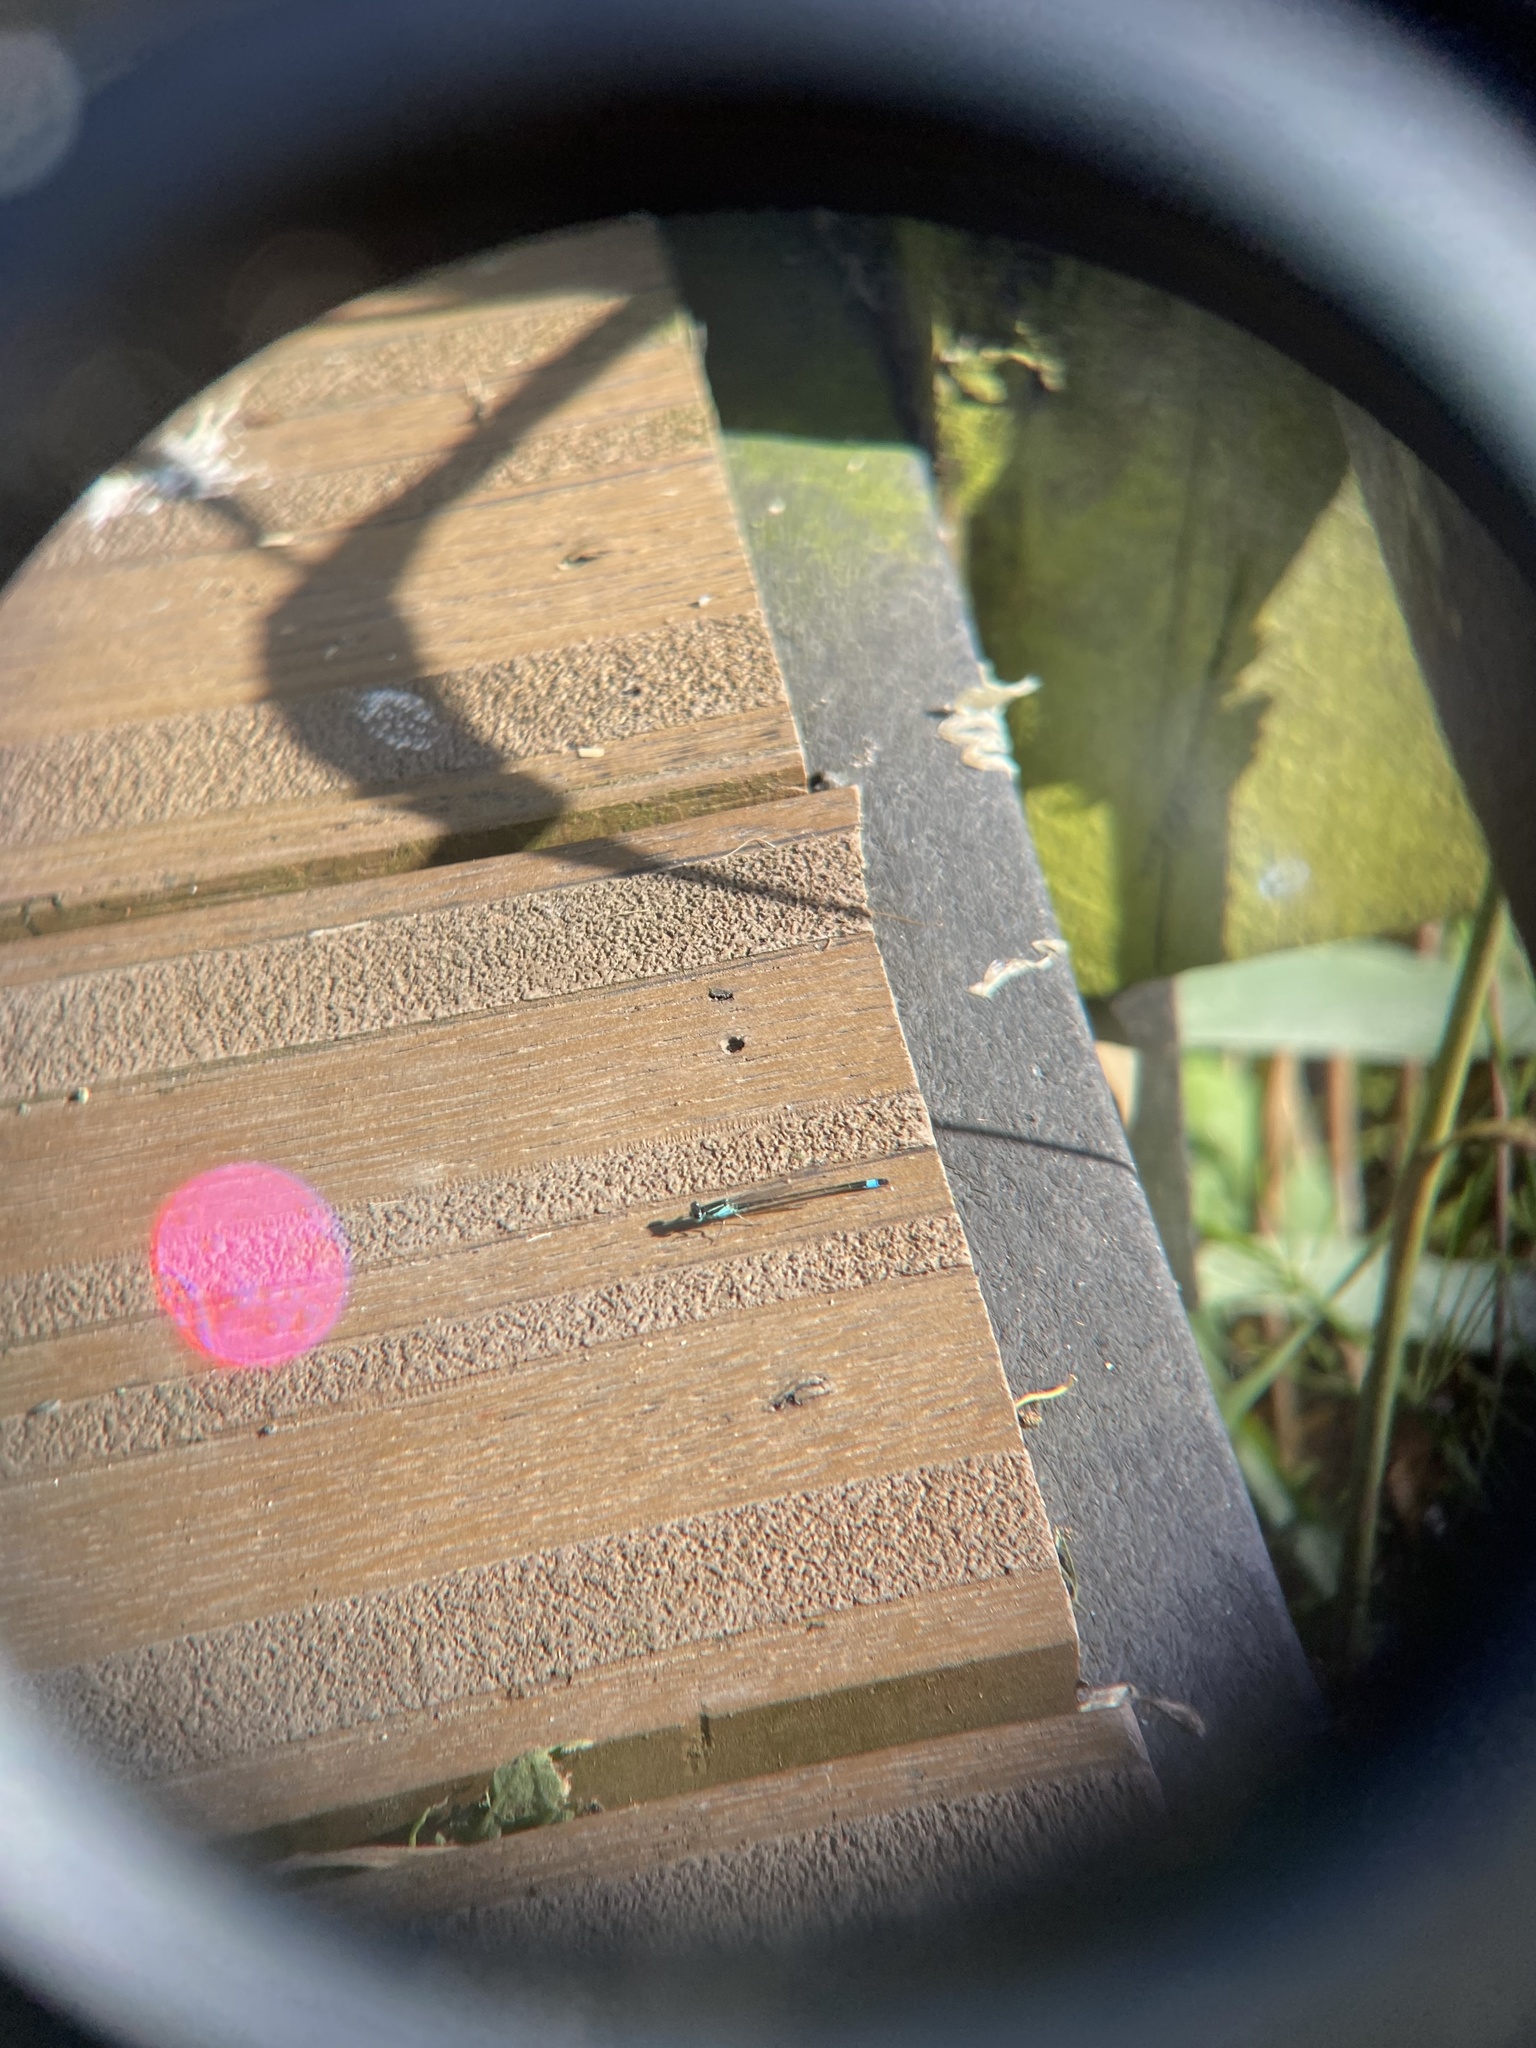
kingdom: Animalia
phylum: Arthropoda
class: Insecta
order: Odonata
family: Coenagrionidae
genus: Ischnura
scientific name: Ischnura elegans
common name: Blue-tailed damselfly
